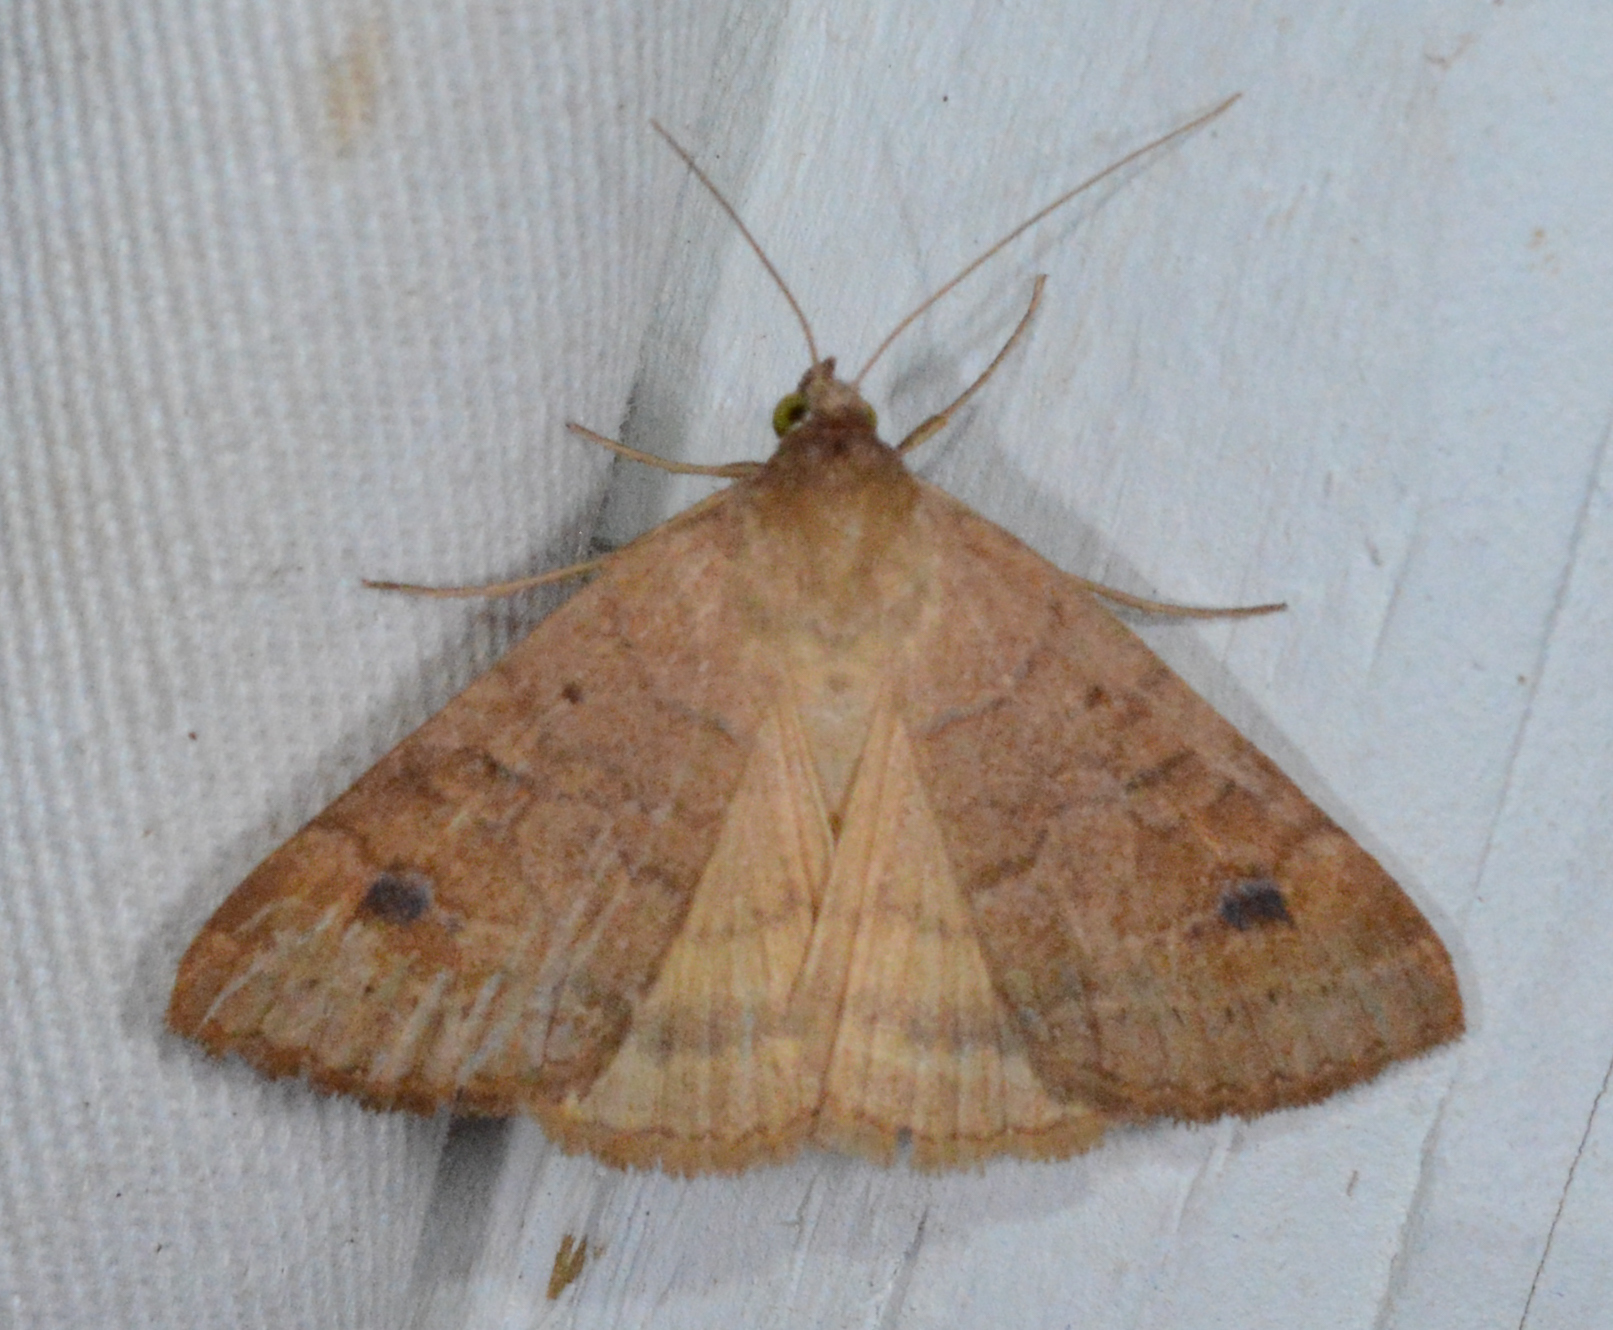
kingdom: Animalia
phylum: Arthropoda
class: Insecta
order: Lepidoptera
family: Erebidae
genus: Caenurgia
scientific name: Caenurgia chloropha
